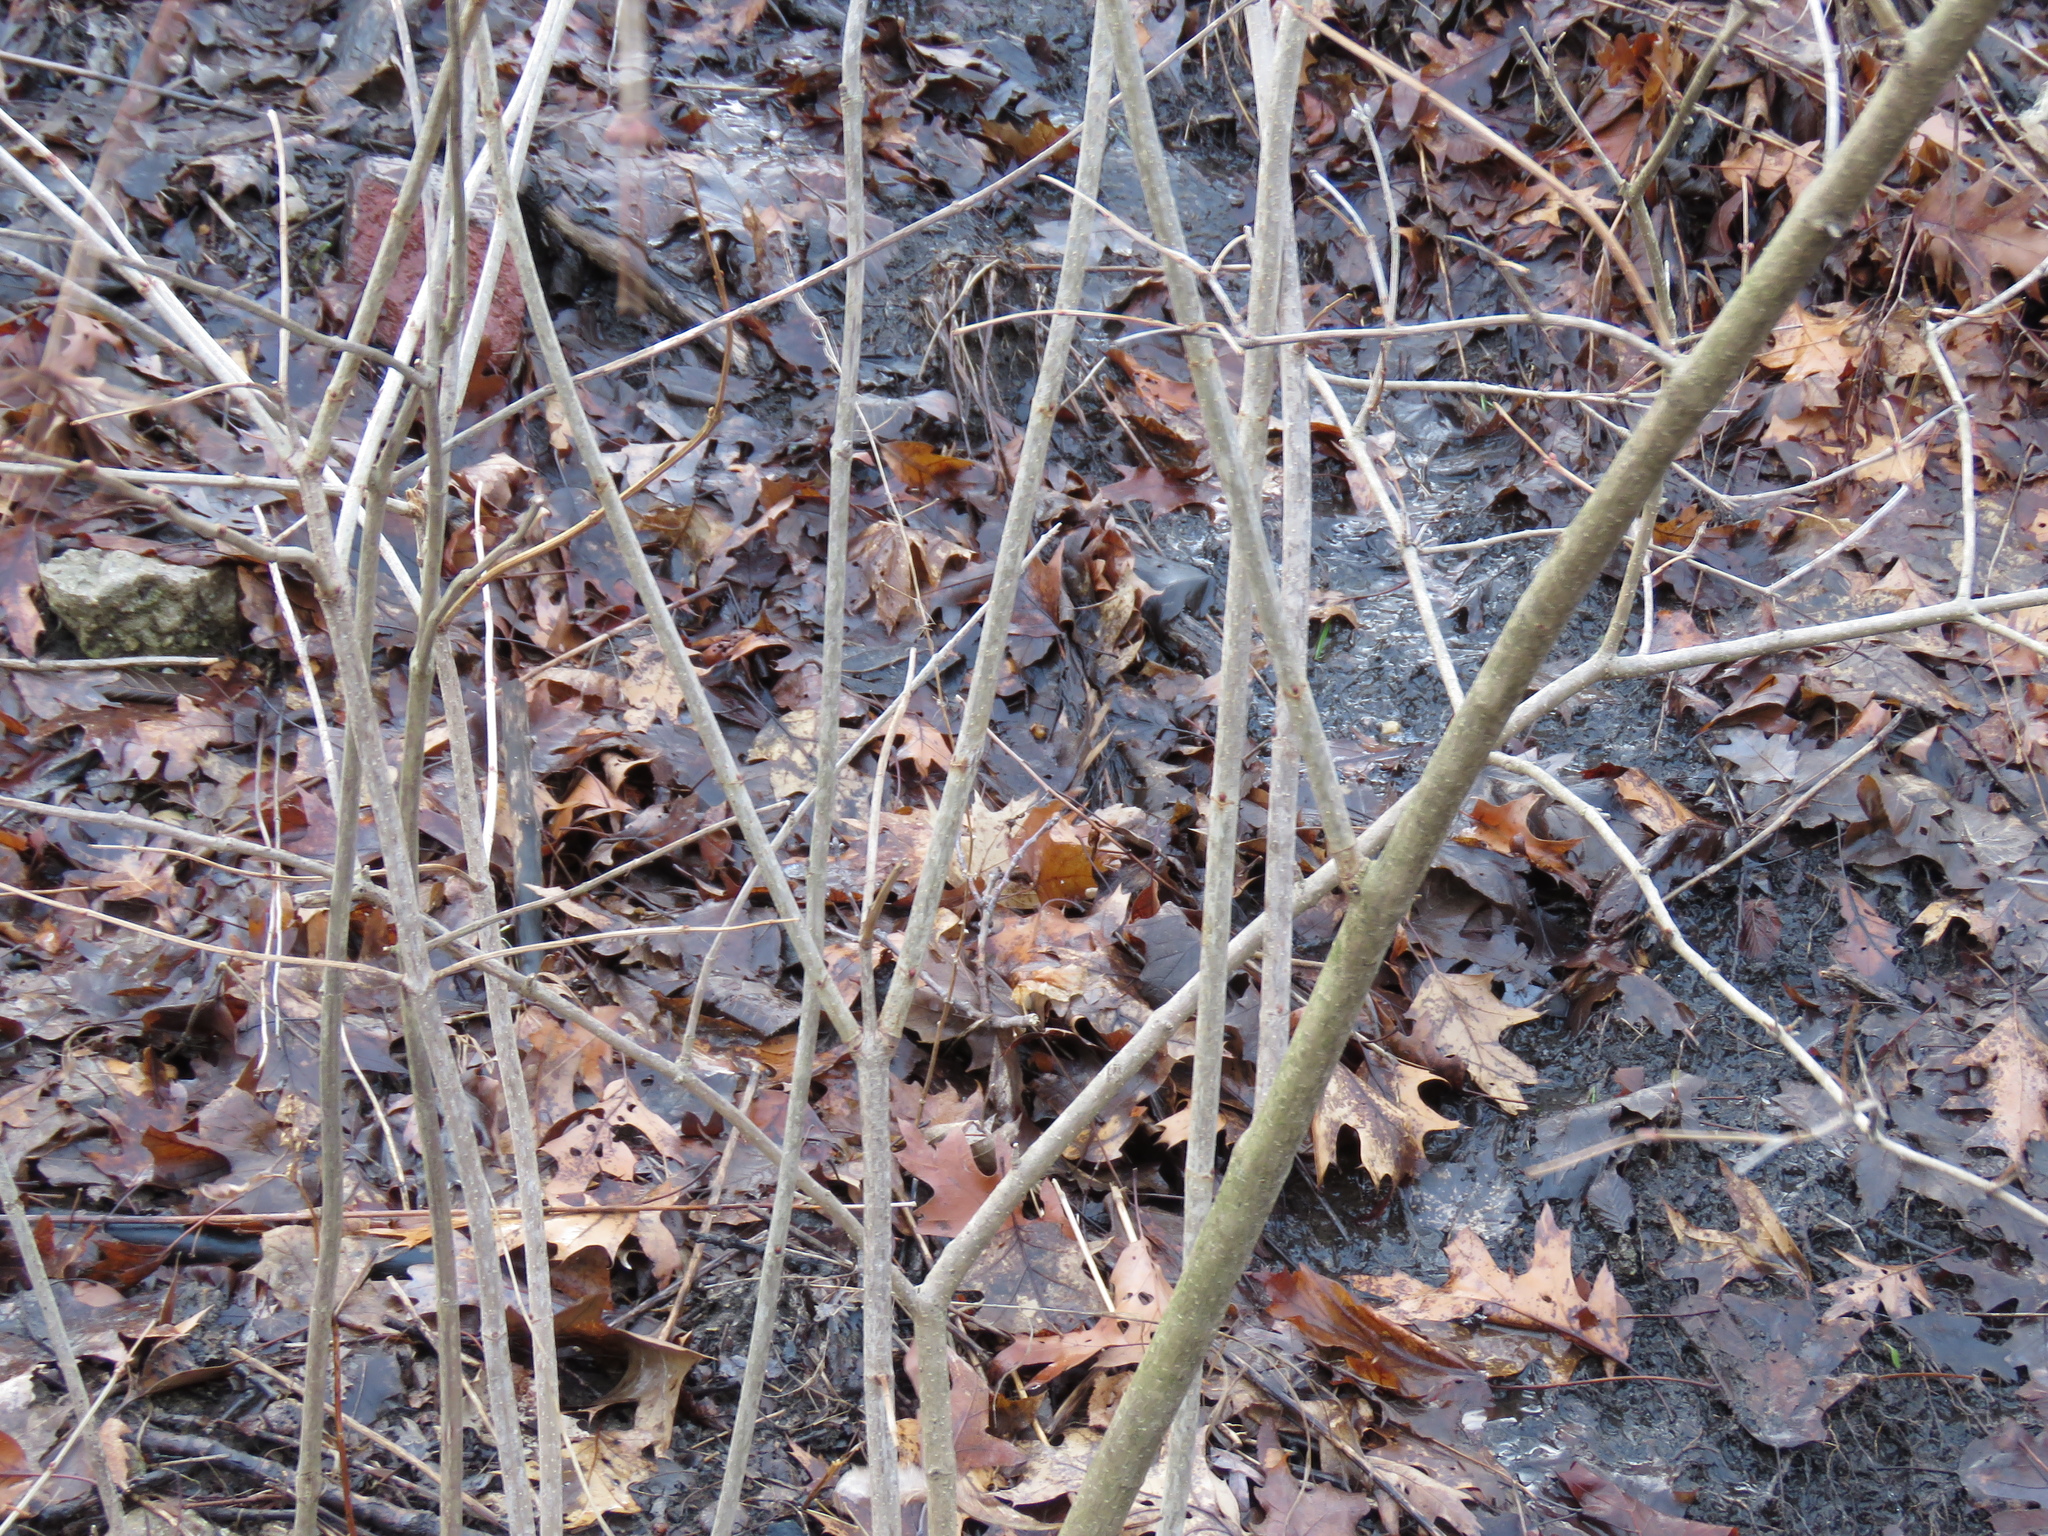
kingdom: Plantae
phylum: Tracheophyta
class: Magnoliopsida
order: Dipsacales
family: Viburnaceae
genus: Viburnum
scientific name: Viburnum opulus
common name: Guelder-rose
